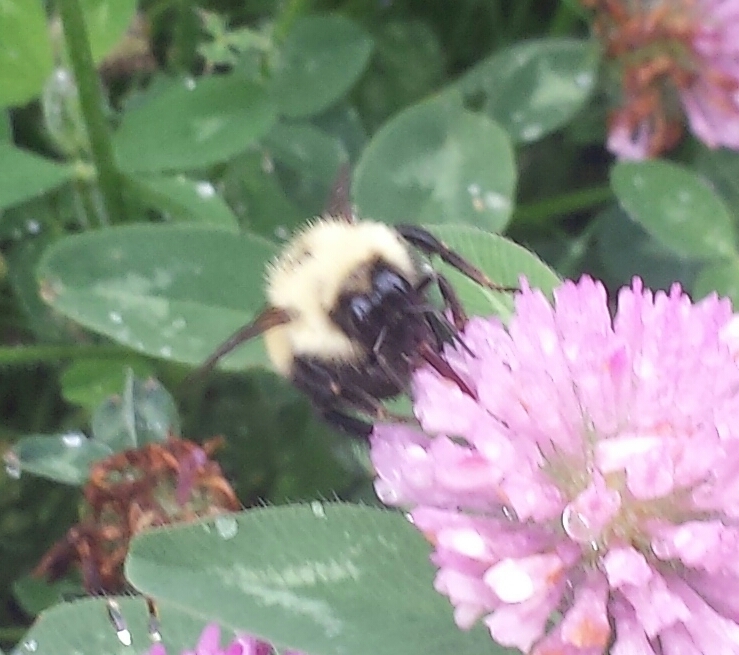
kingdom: Animalia
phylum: Arthropoda
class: Insecta
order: Hymenoptera
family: Apidae
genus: Pyrobombus
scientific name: Pyrobombus
